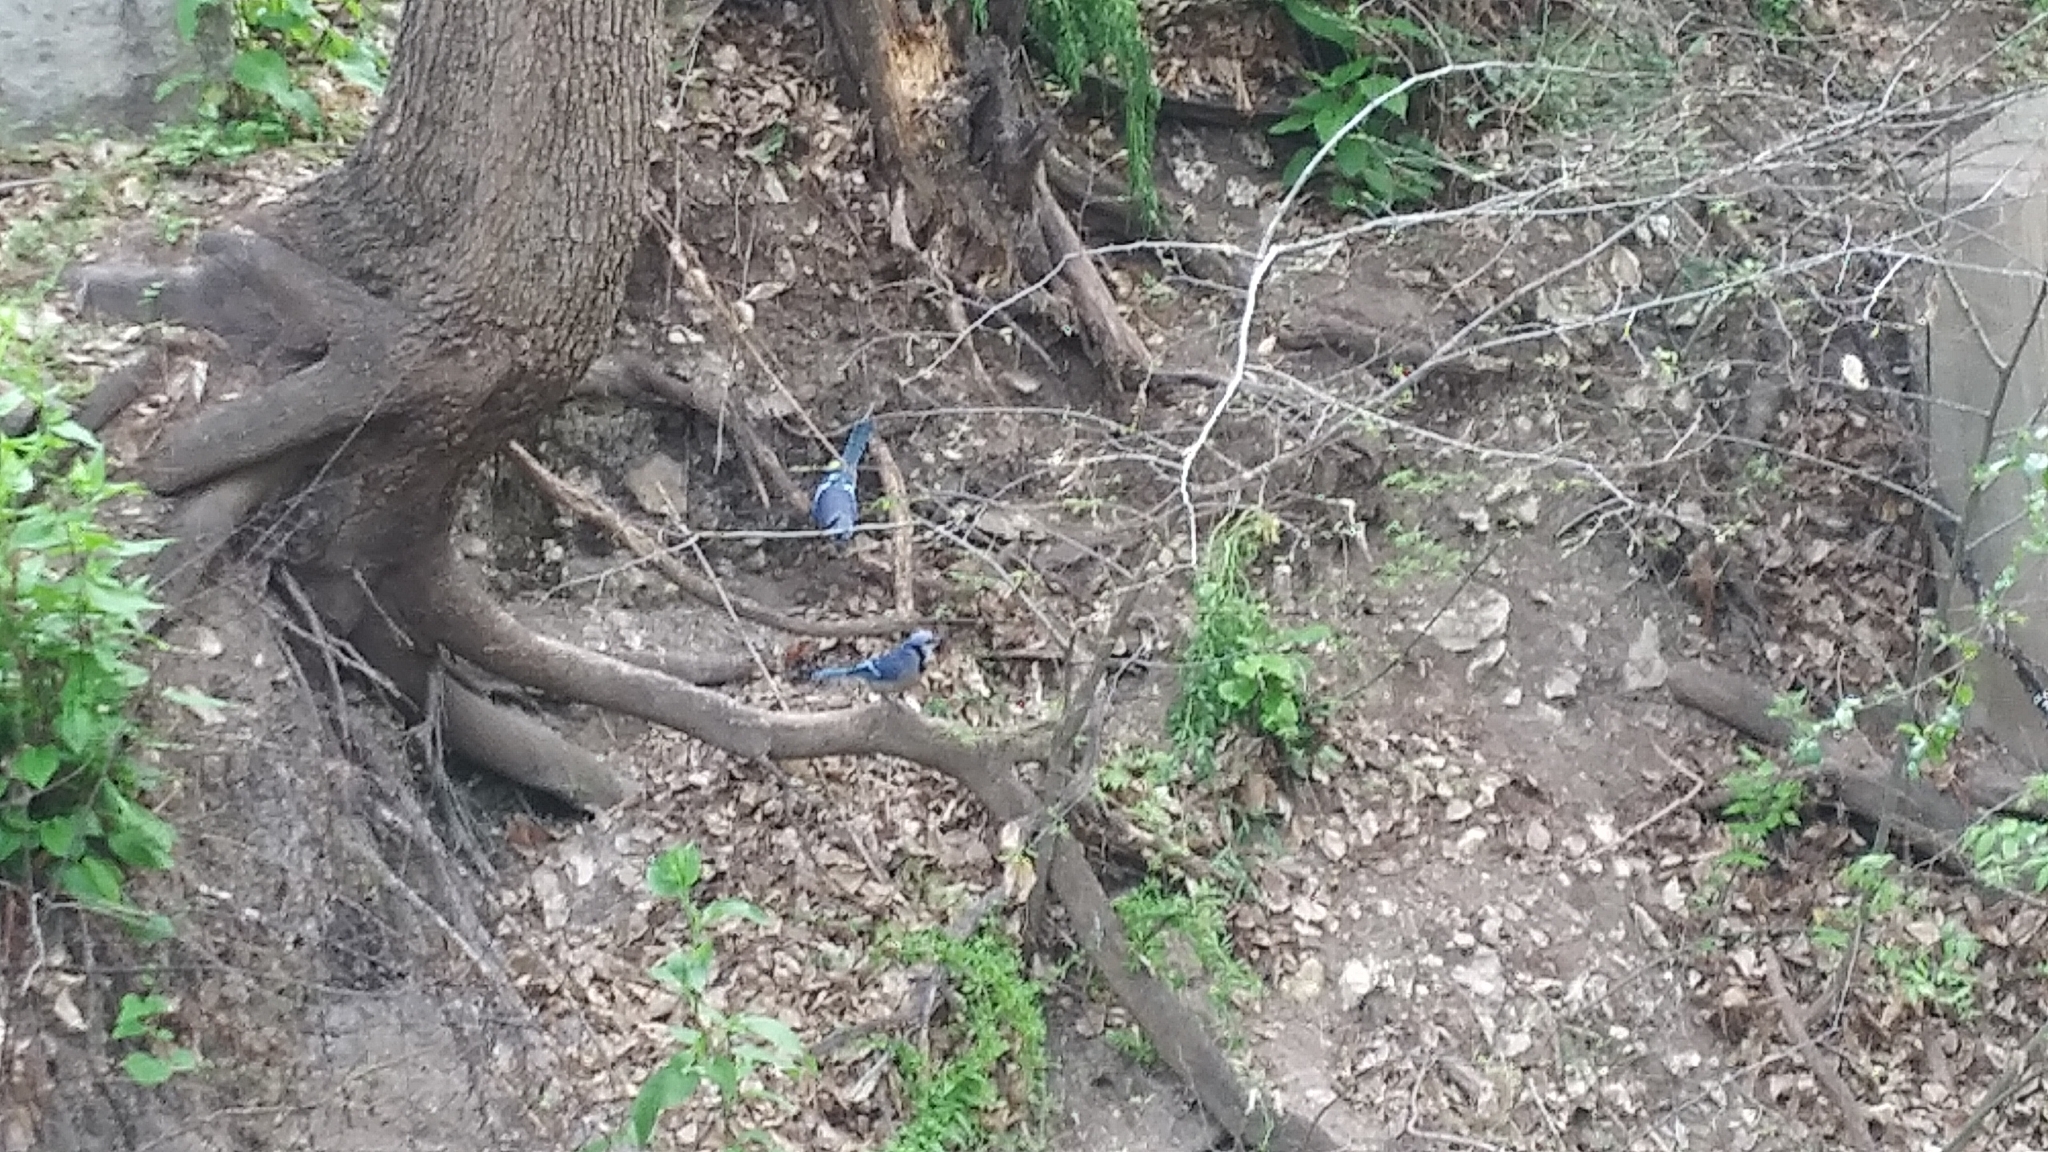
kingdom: Animalia
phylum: Chordata
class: Aves
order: Passeriformes
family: Corvidae
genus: Cyanocitta
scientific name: Cyanocitta cristata
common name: Blue jay
